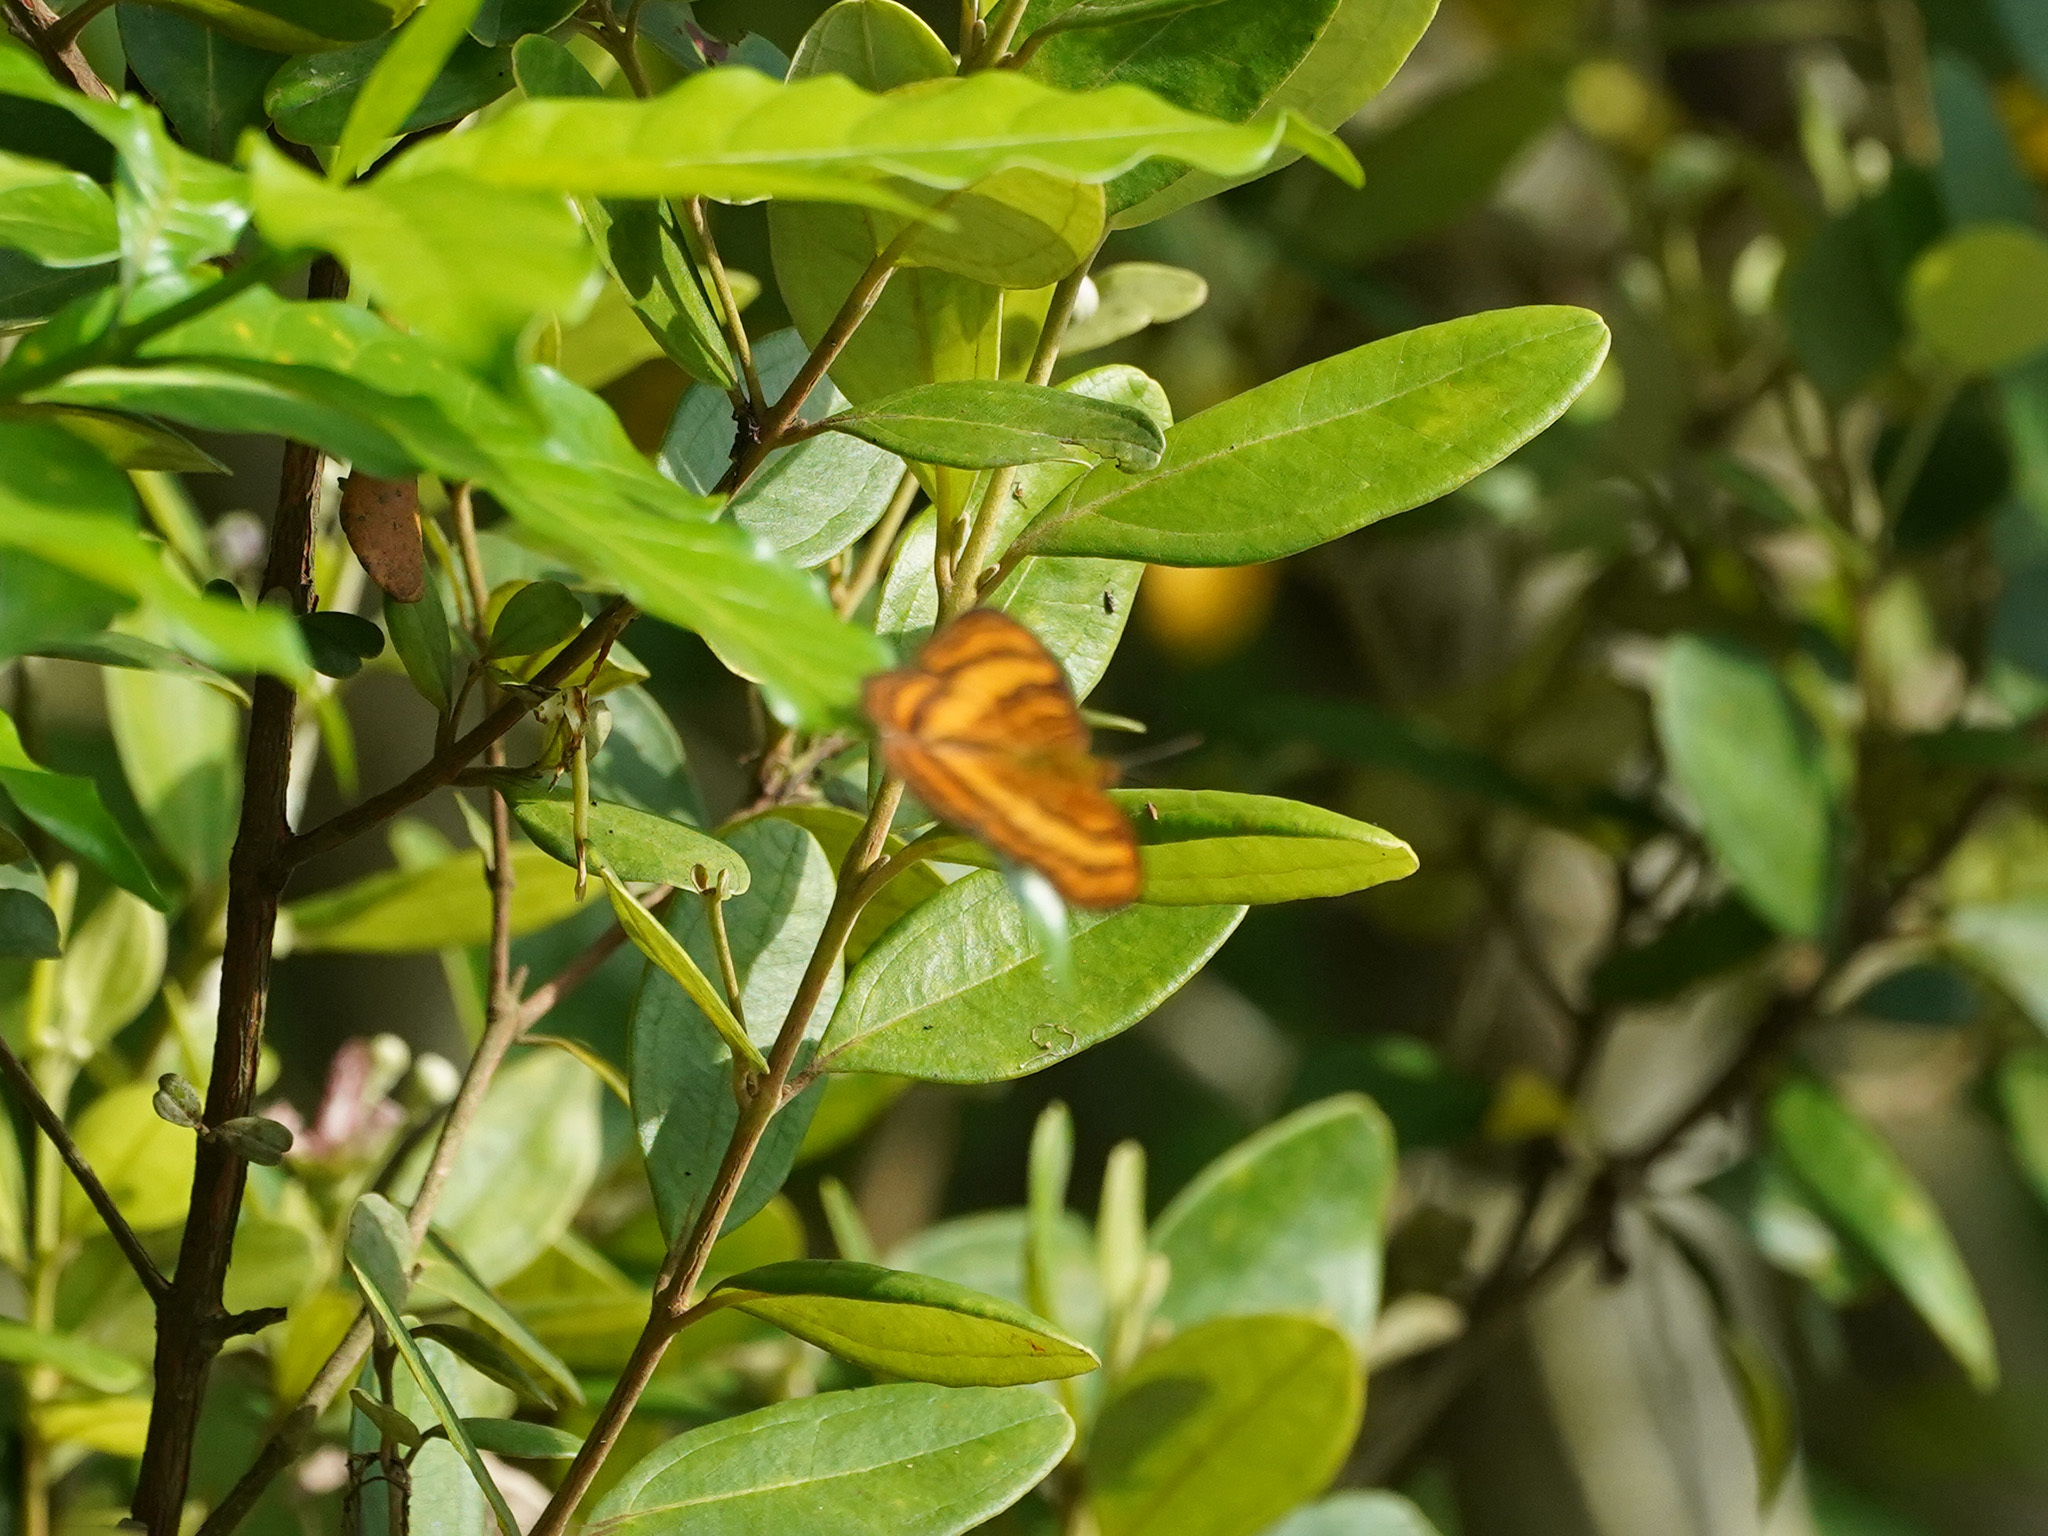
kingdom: Animalia
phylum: Arthropoda
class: Insecta
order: Lepidoptera
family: Nymphalidae
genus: Pandita
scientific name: Pandita sinope
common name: Colonel
